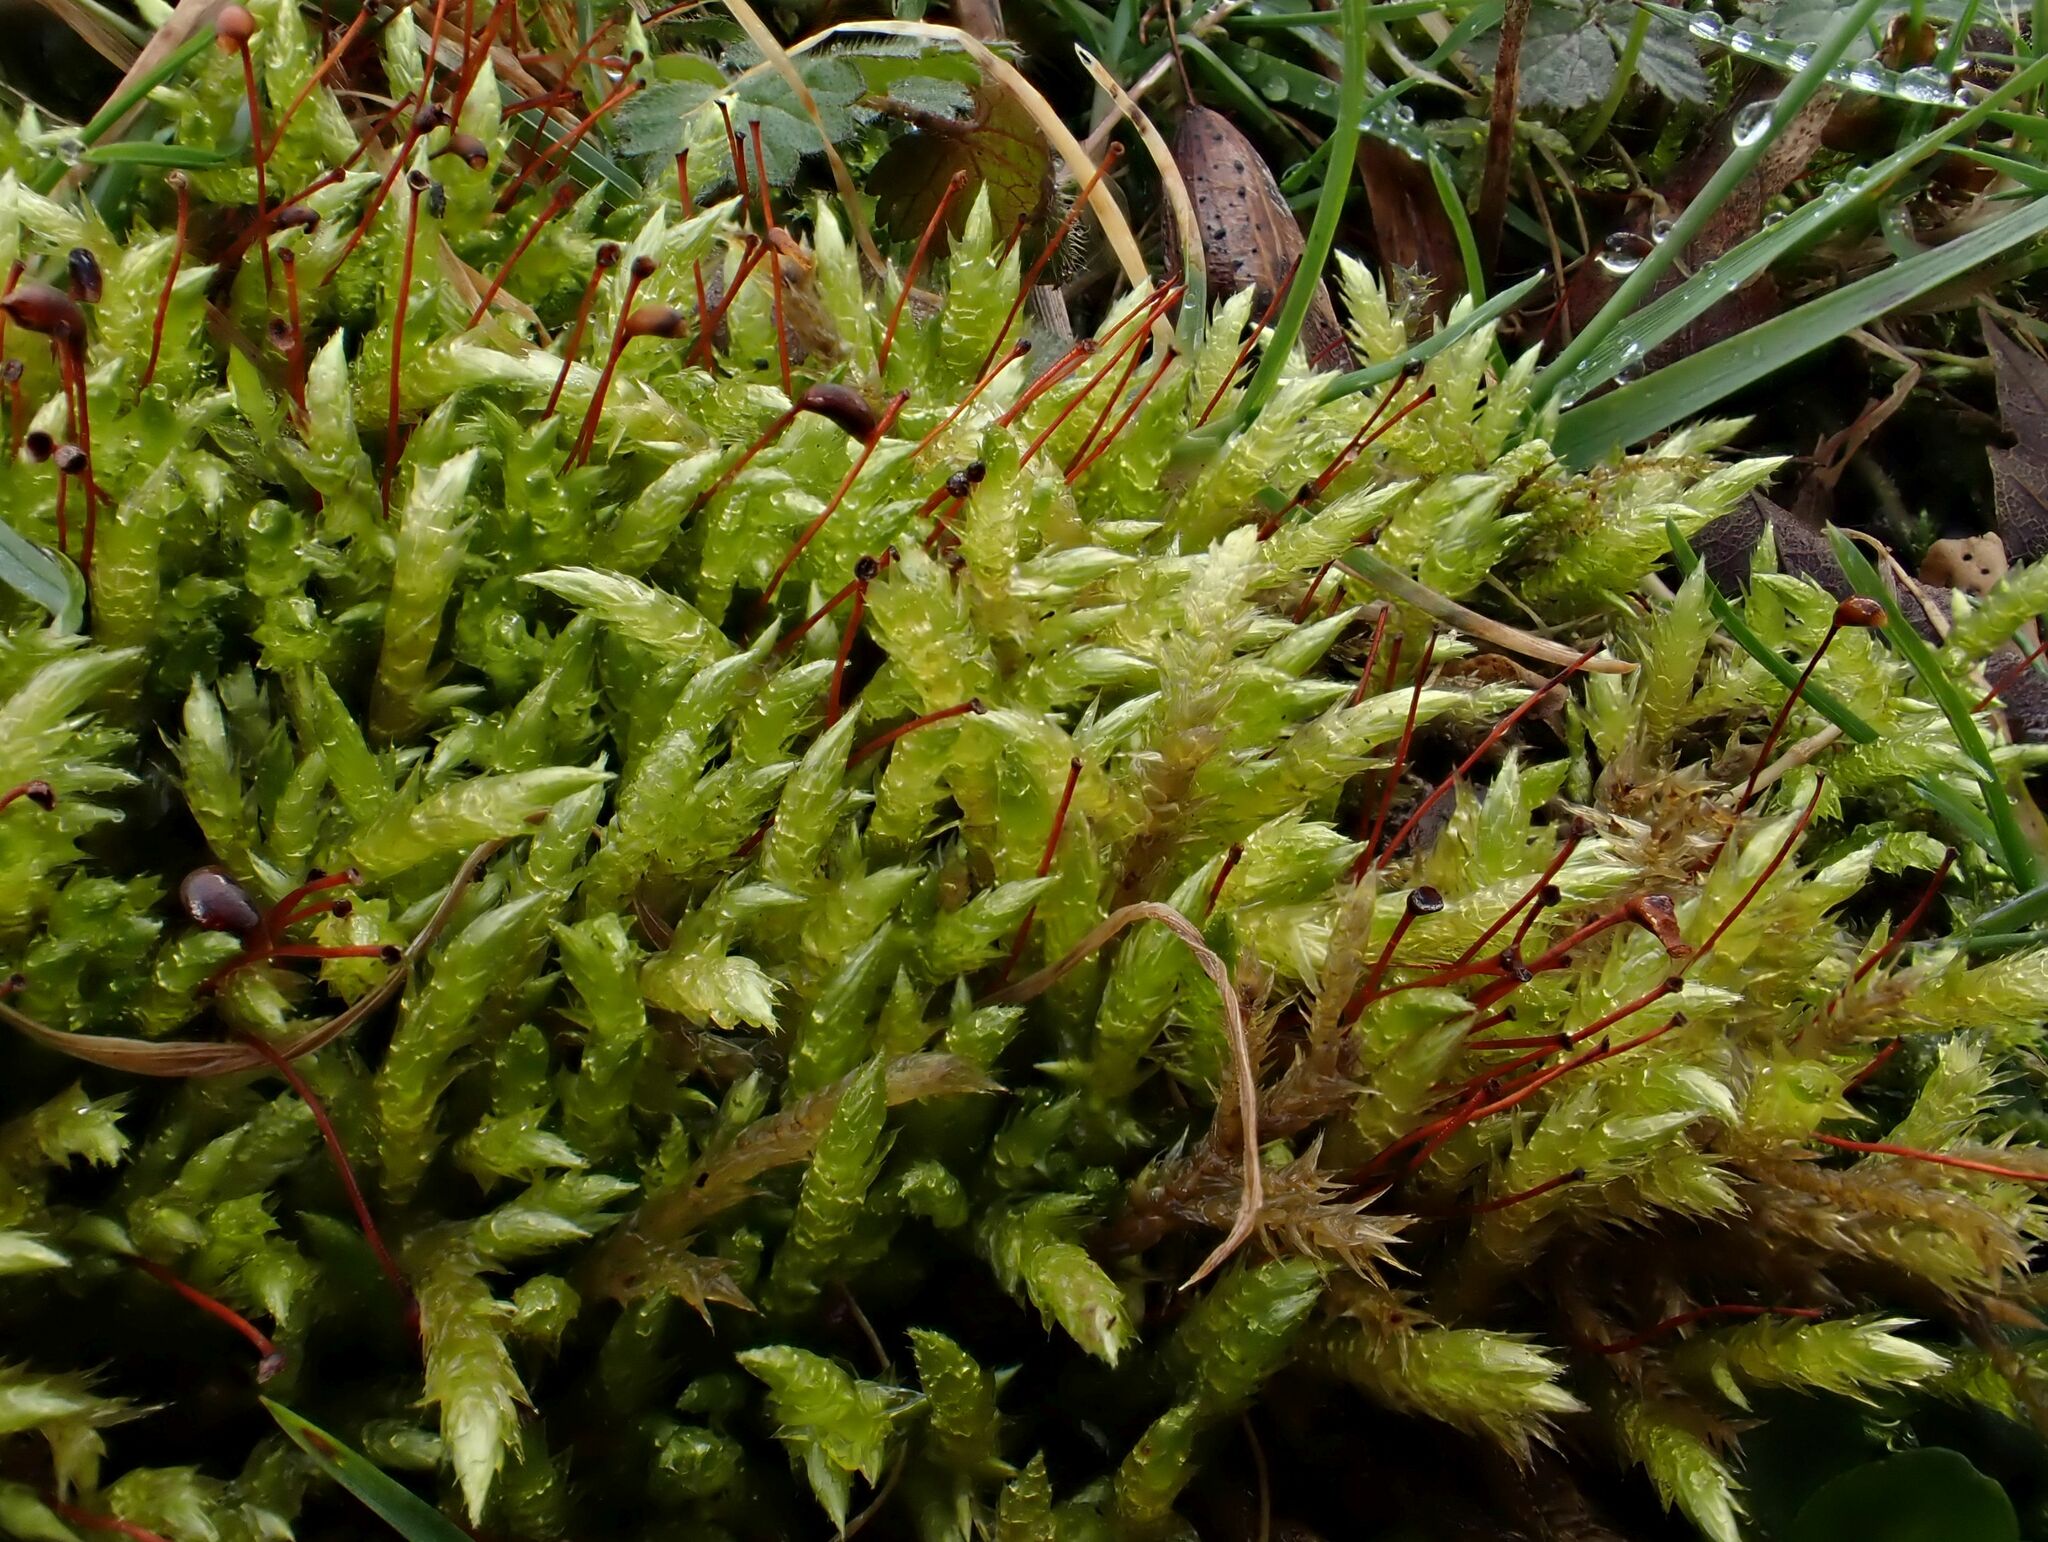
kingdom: Plantae
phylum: Bryophyta
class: Bryopsida
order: Hypnales
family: Brachytheciaceae
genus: Brachythecium
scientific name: Brachythecium rutabulum
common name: Rough-stalked feather-moss
